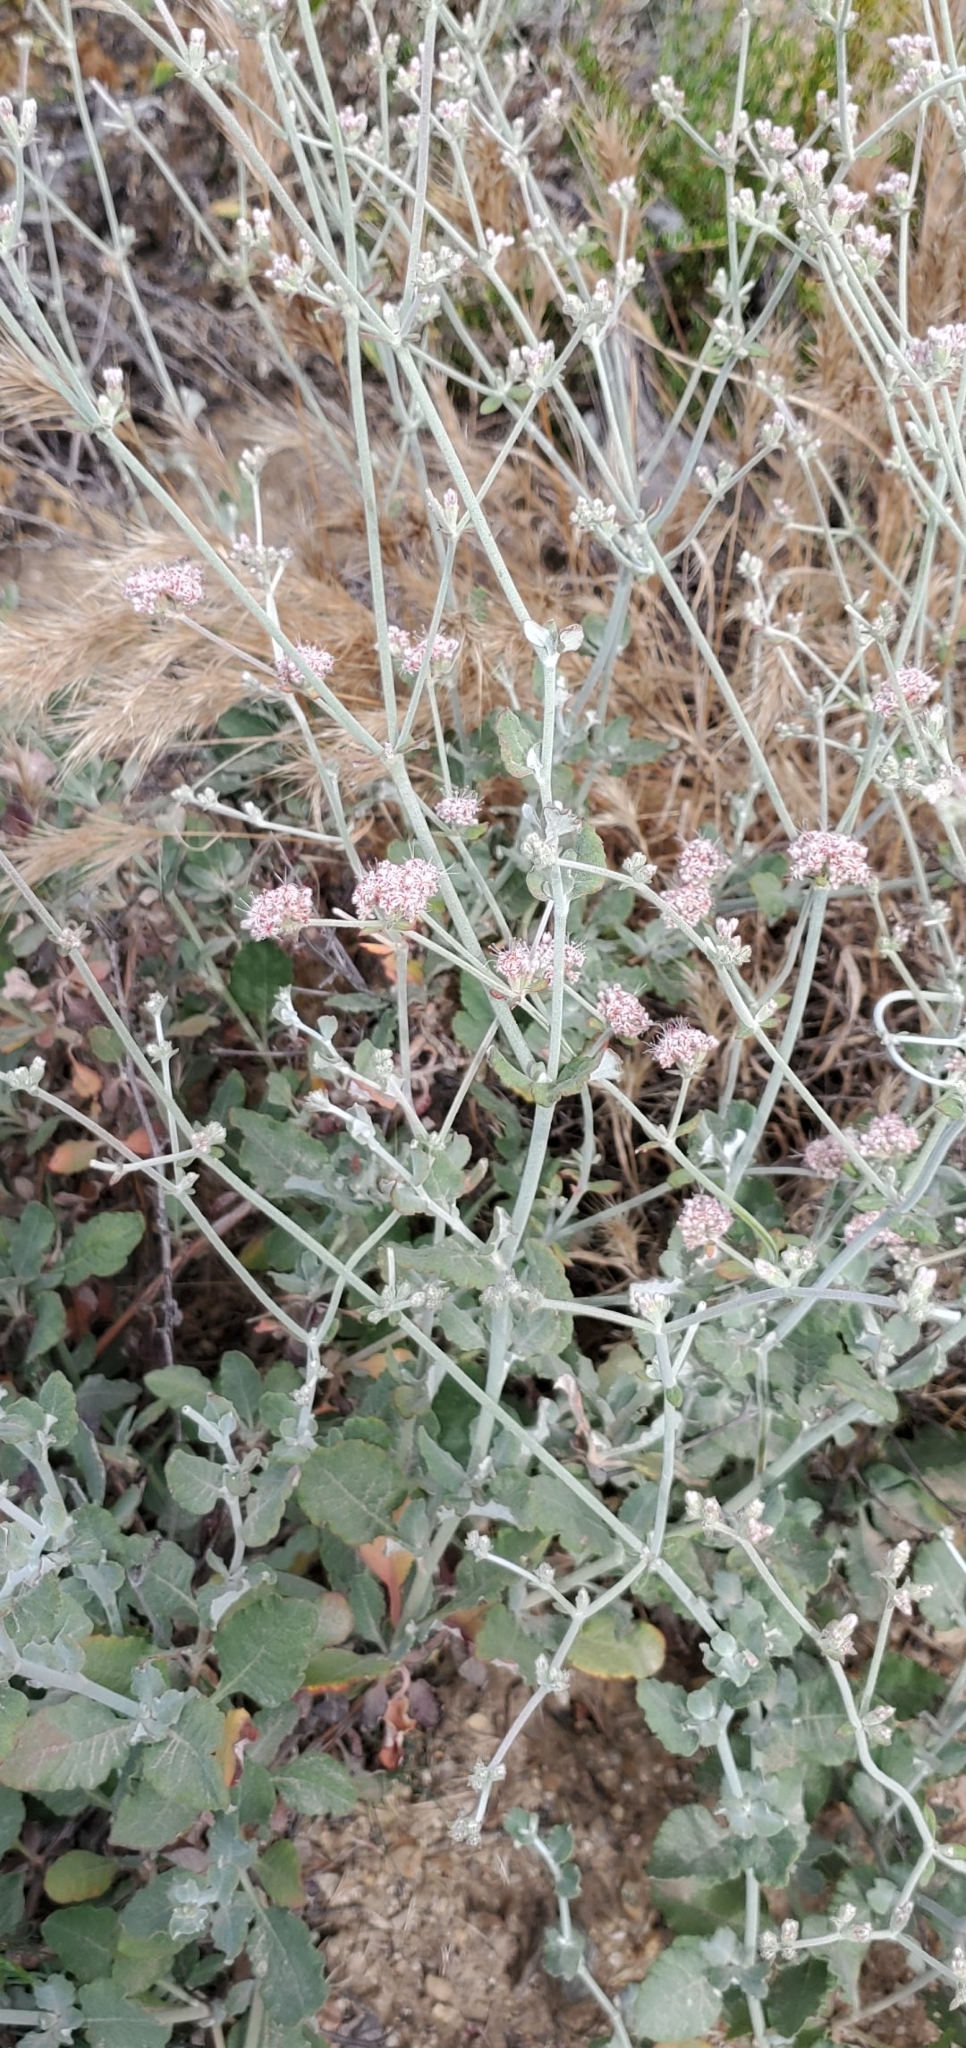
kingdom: Plantae
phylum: Tracheophyta
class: Magnoliopsida
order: Caryophyllales
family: Polygonaceae
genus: Eriogonum
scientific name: Eriogonum cinereum
